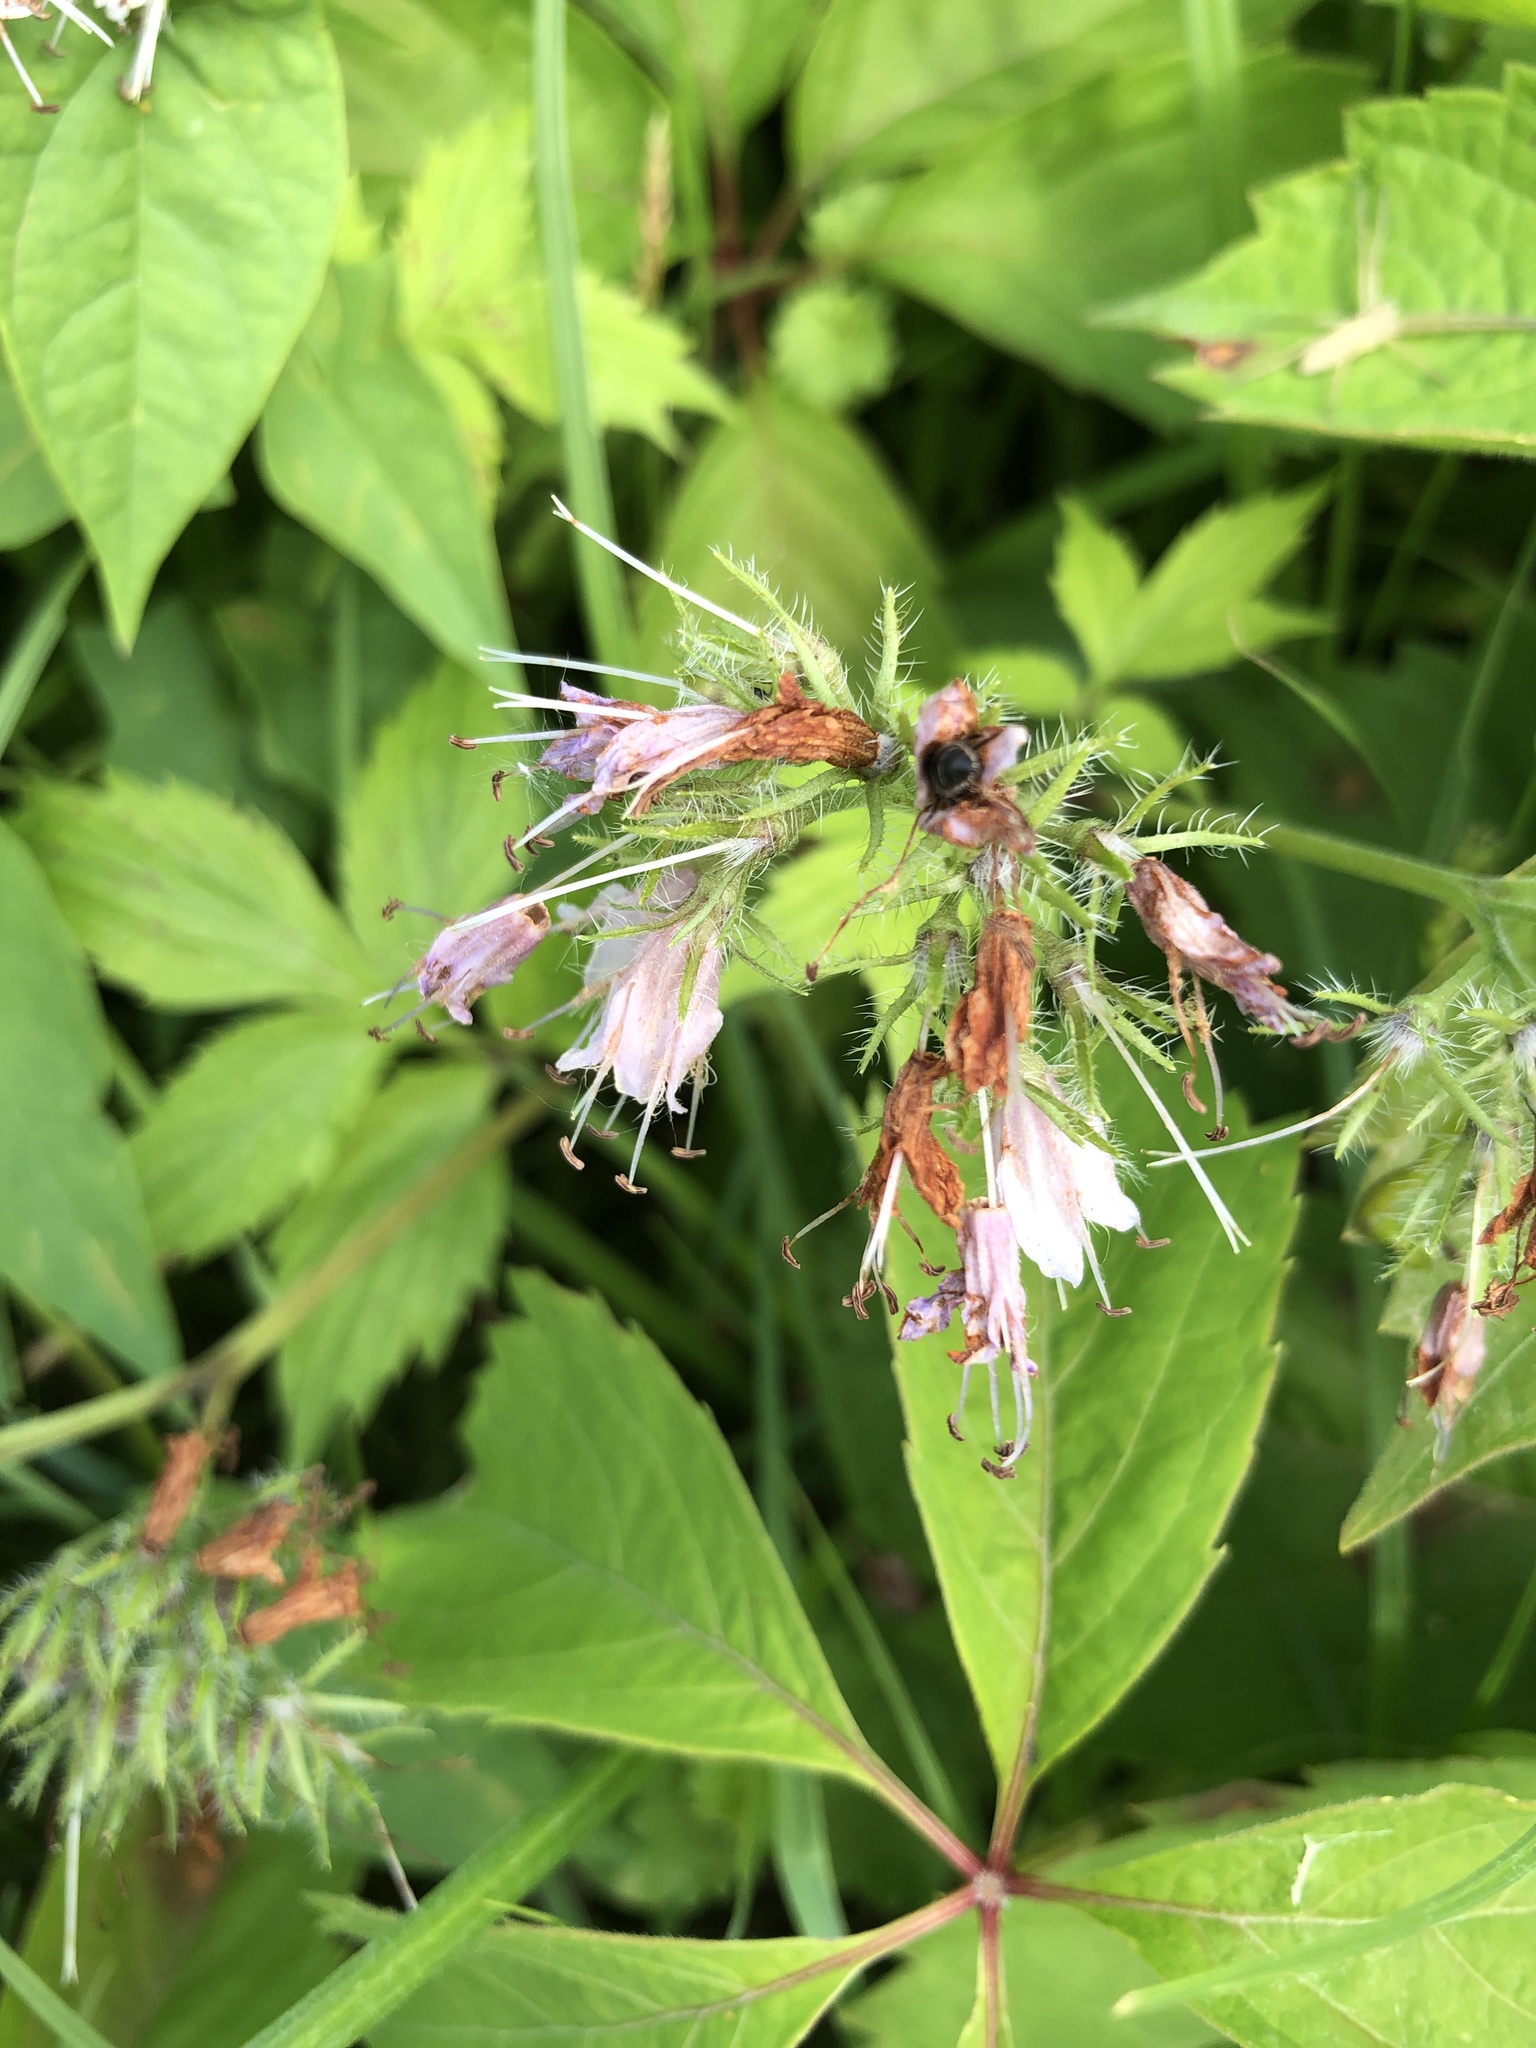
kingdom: Plantae
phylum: Tracheophyta
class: Magnoliopsida
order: Boraginales
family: Hydrophyllaceae
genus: Hydrophyllum
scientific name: Hydrophyllum virginianum
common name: Virginia waterleaf
